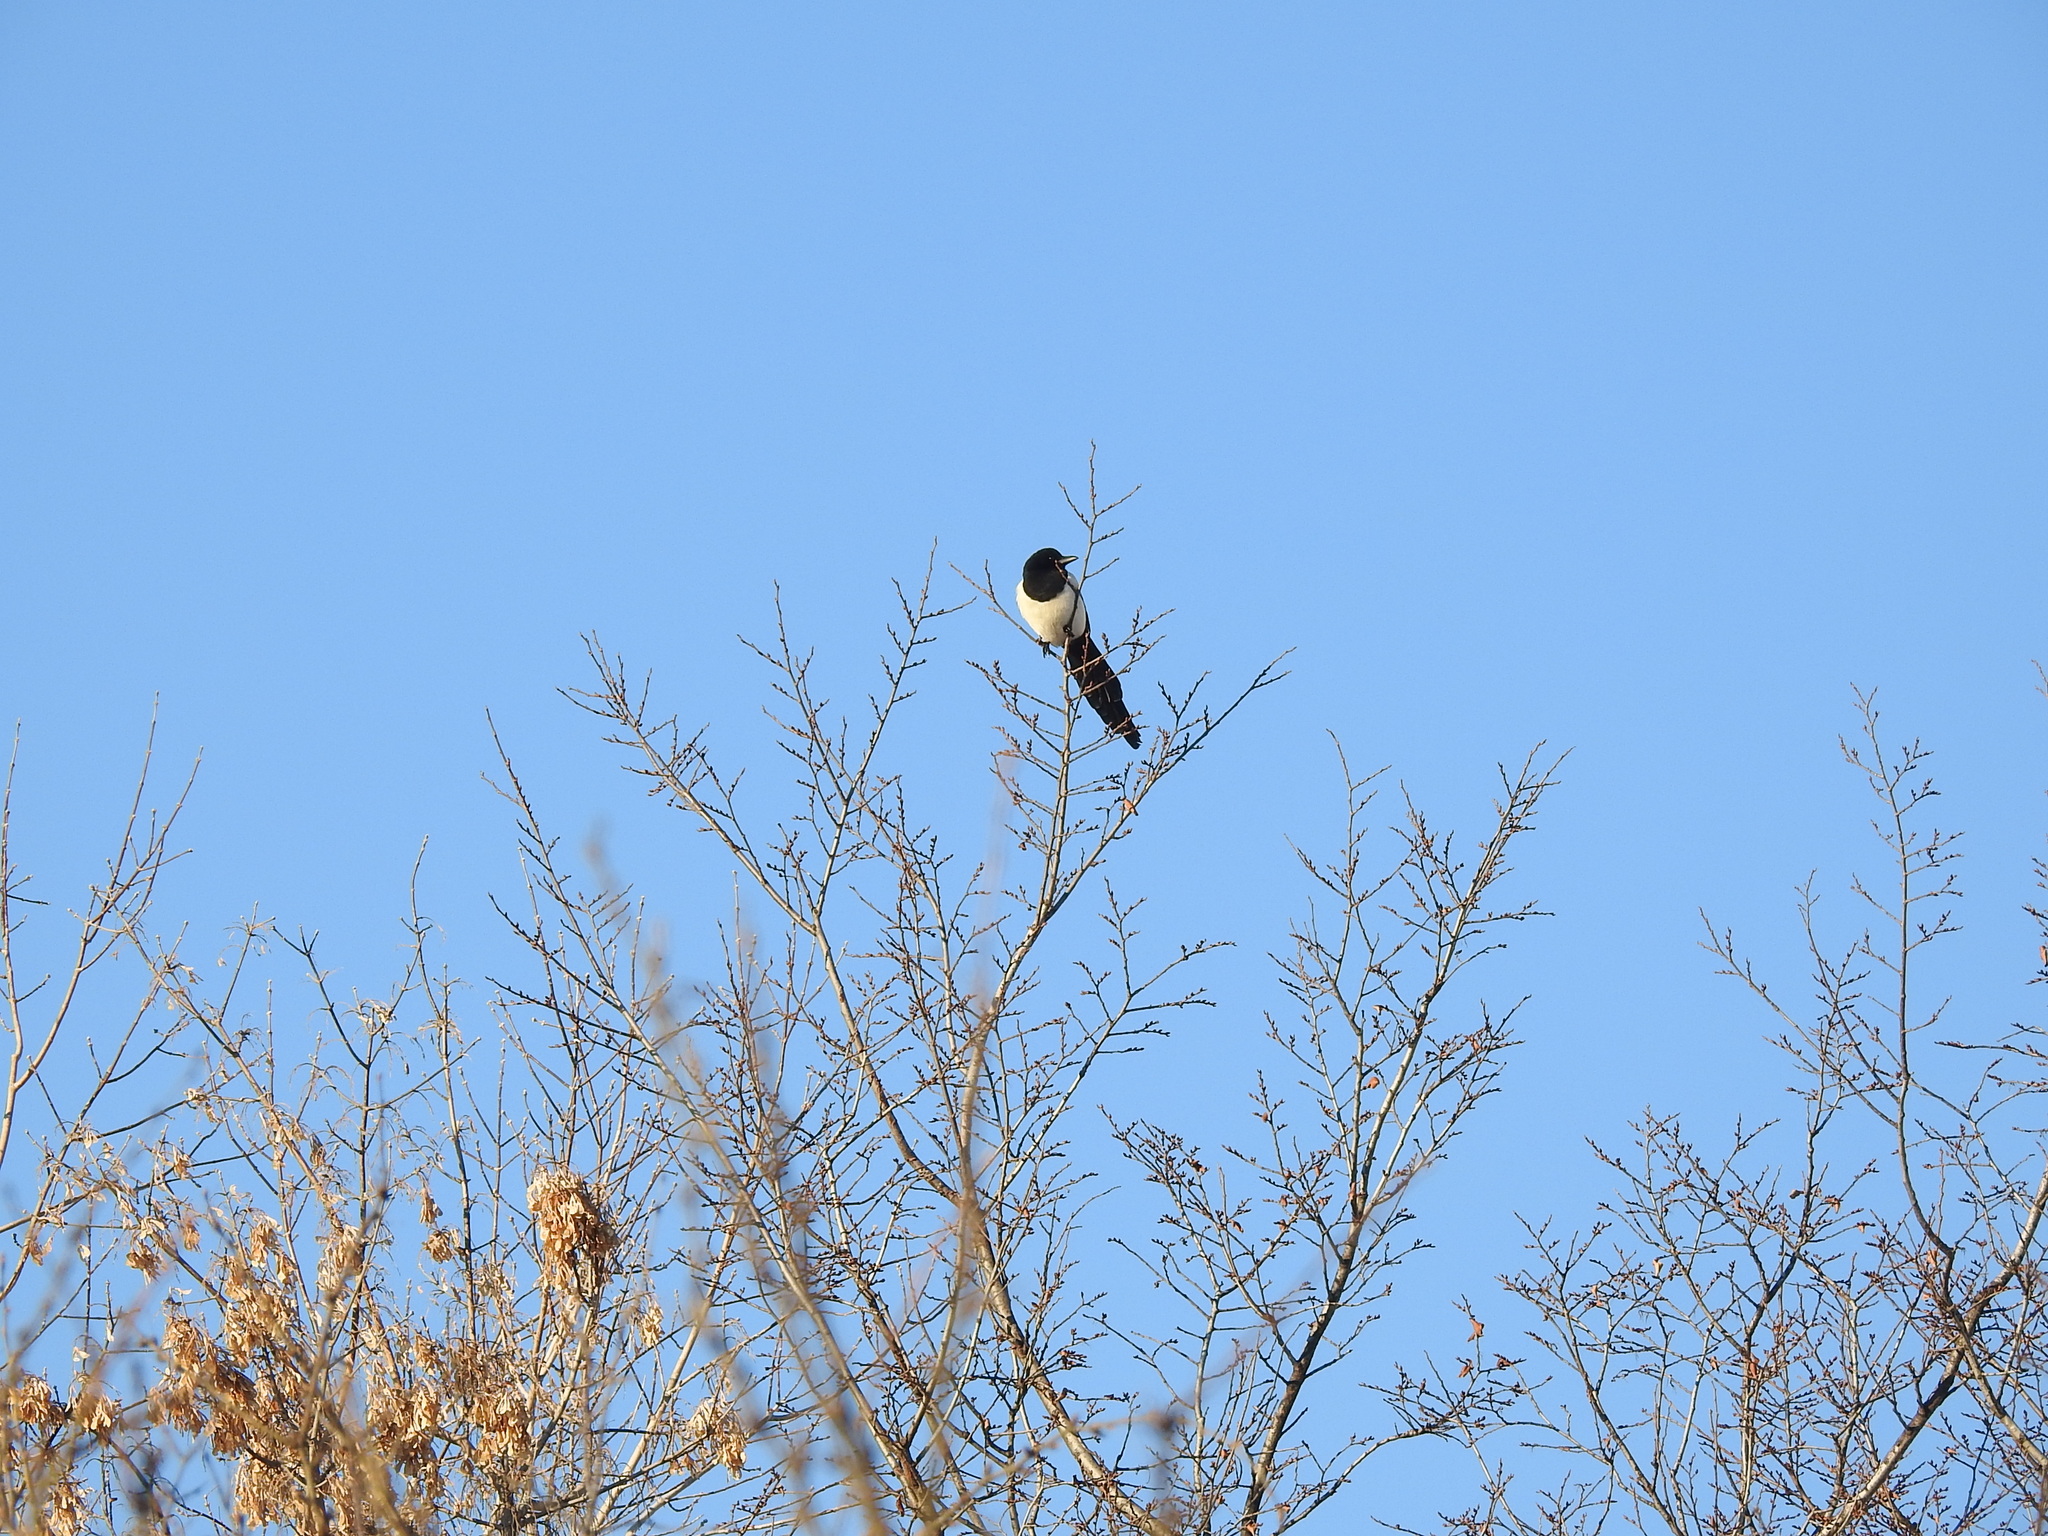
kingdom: Animalia
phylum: Chordata
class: Aves
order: Passeriformes
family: Corvidae
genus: Pica
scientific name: Pica pica
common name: Eurasian magpie
